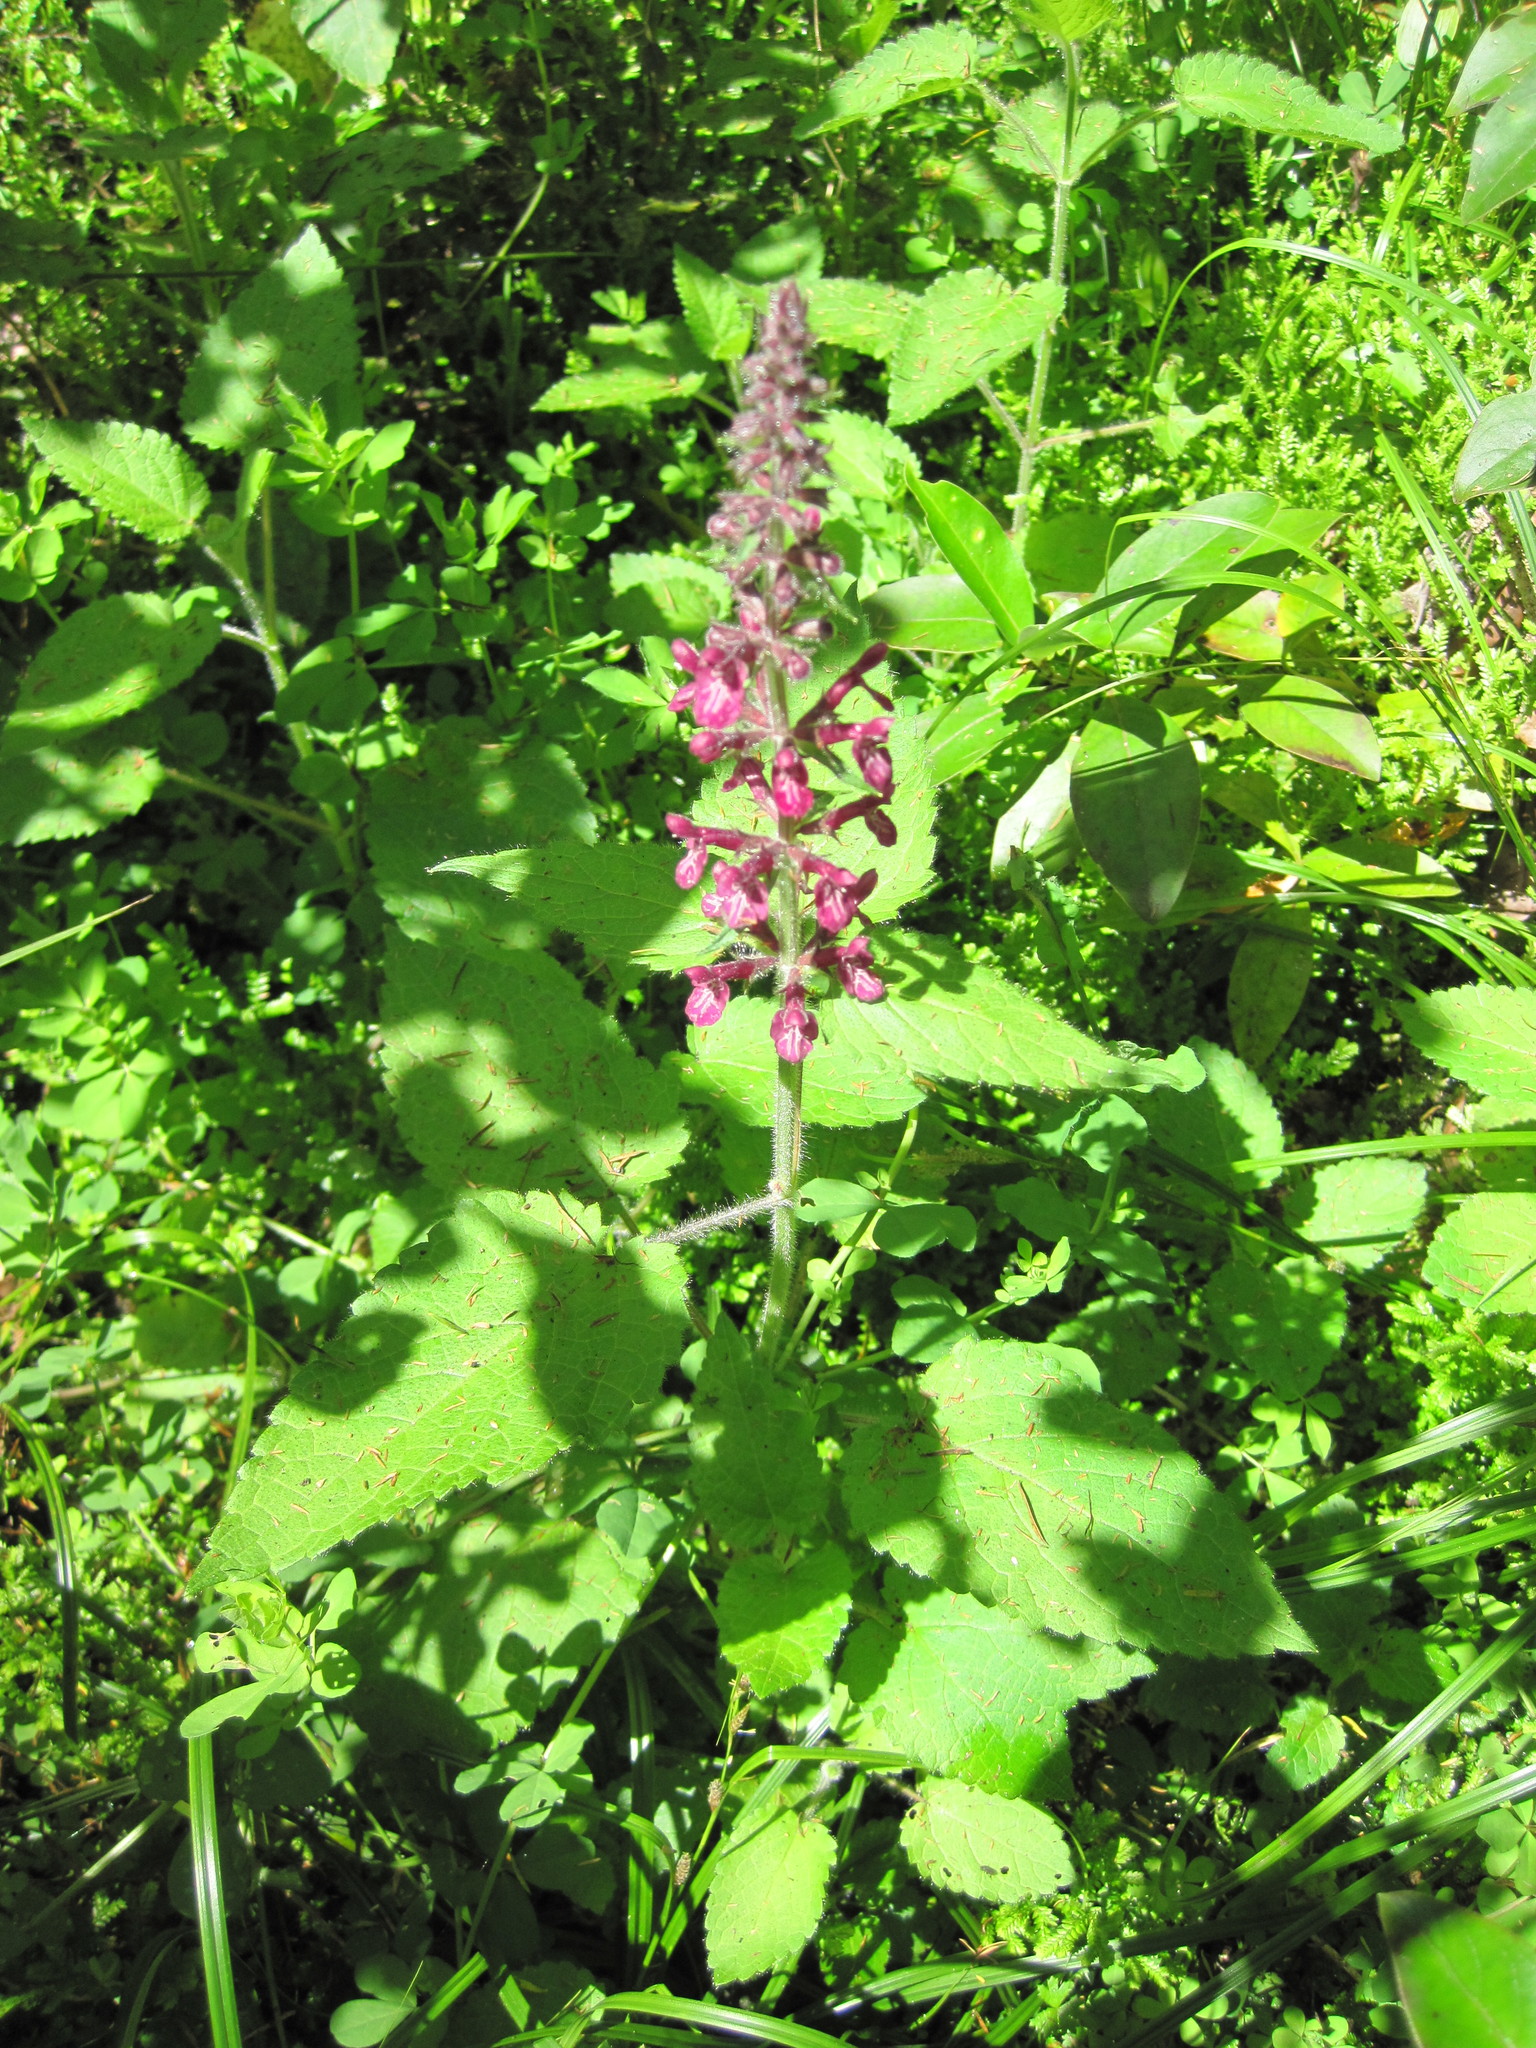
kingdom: Plantae
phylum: Tracheophyta
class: Magnoliopsida
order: Lamiales
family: Lamiaceae
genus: Stachys
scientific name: Stachys sylvatica
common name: Hedge woundwort
